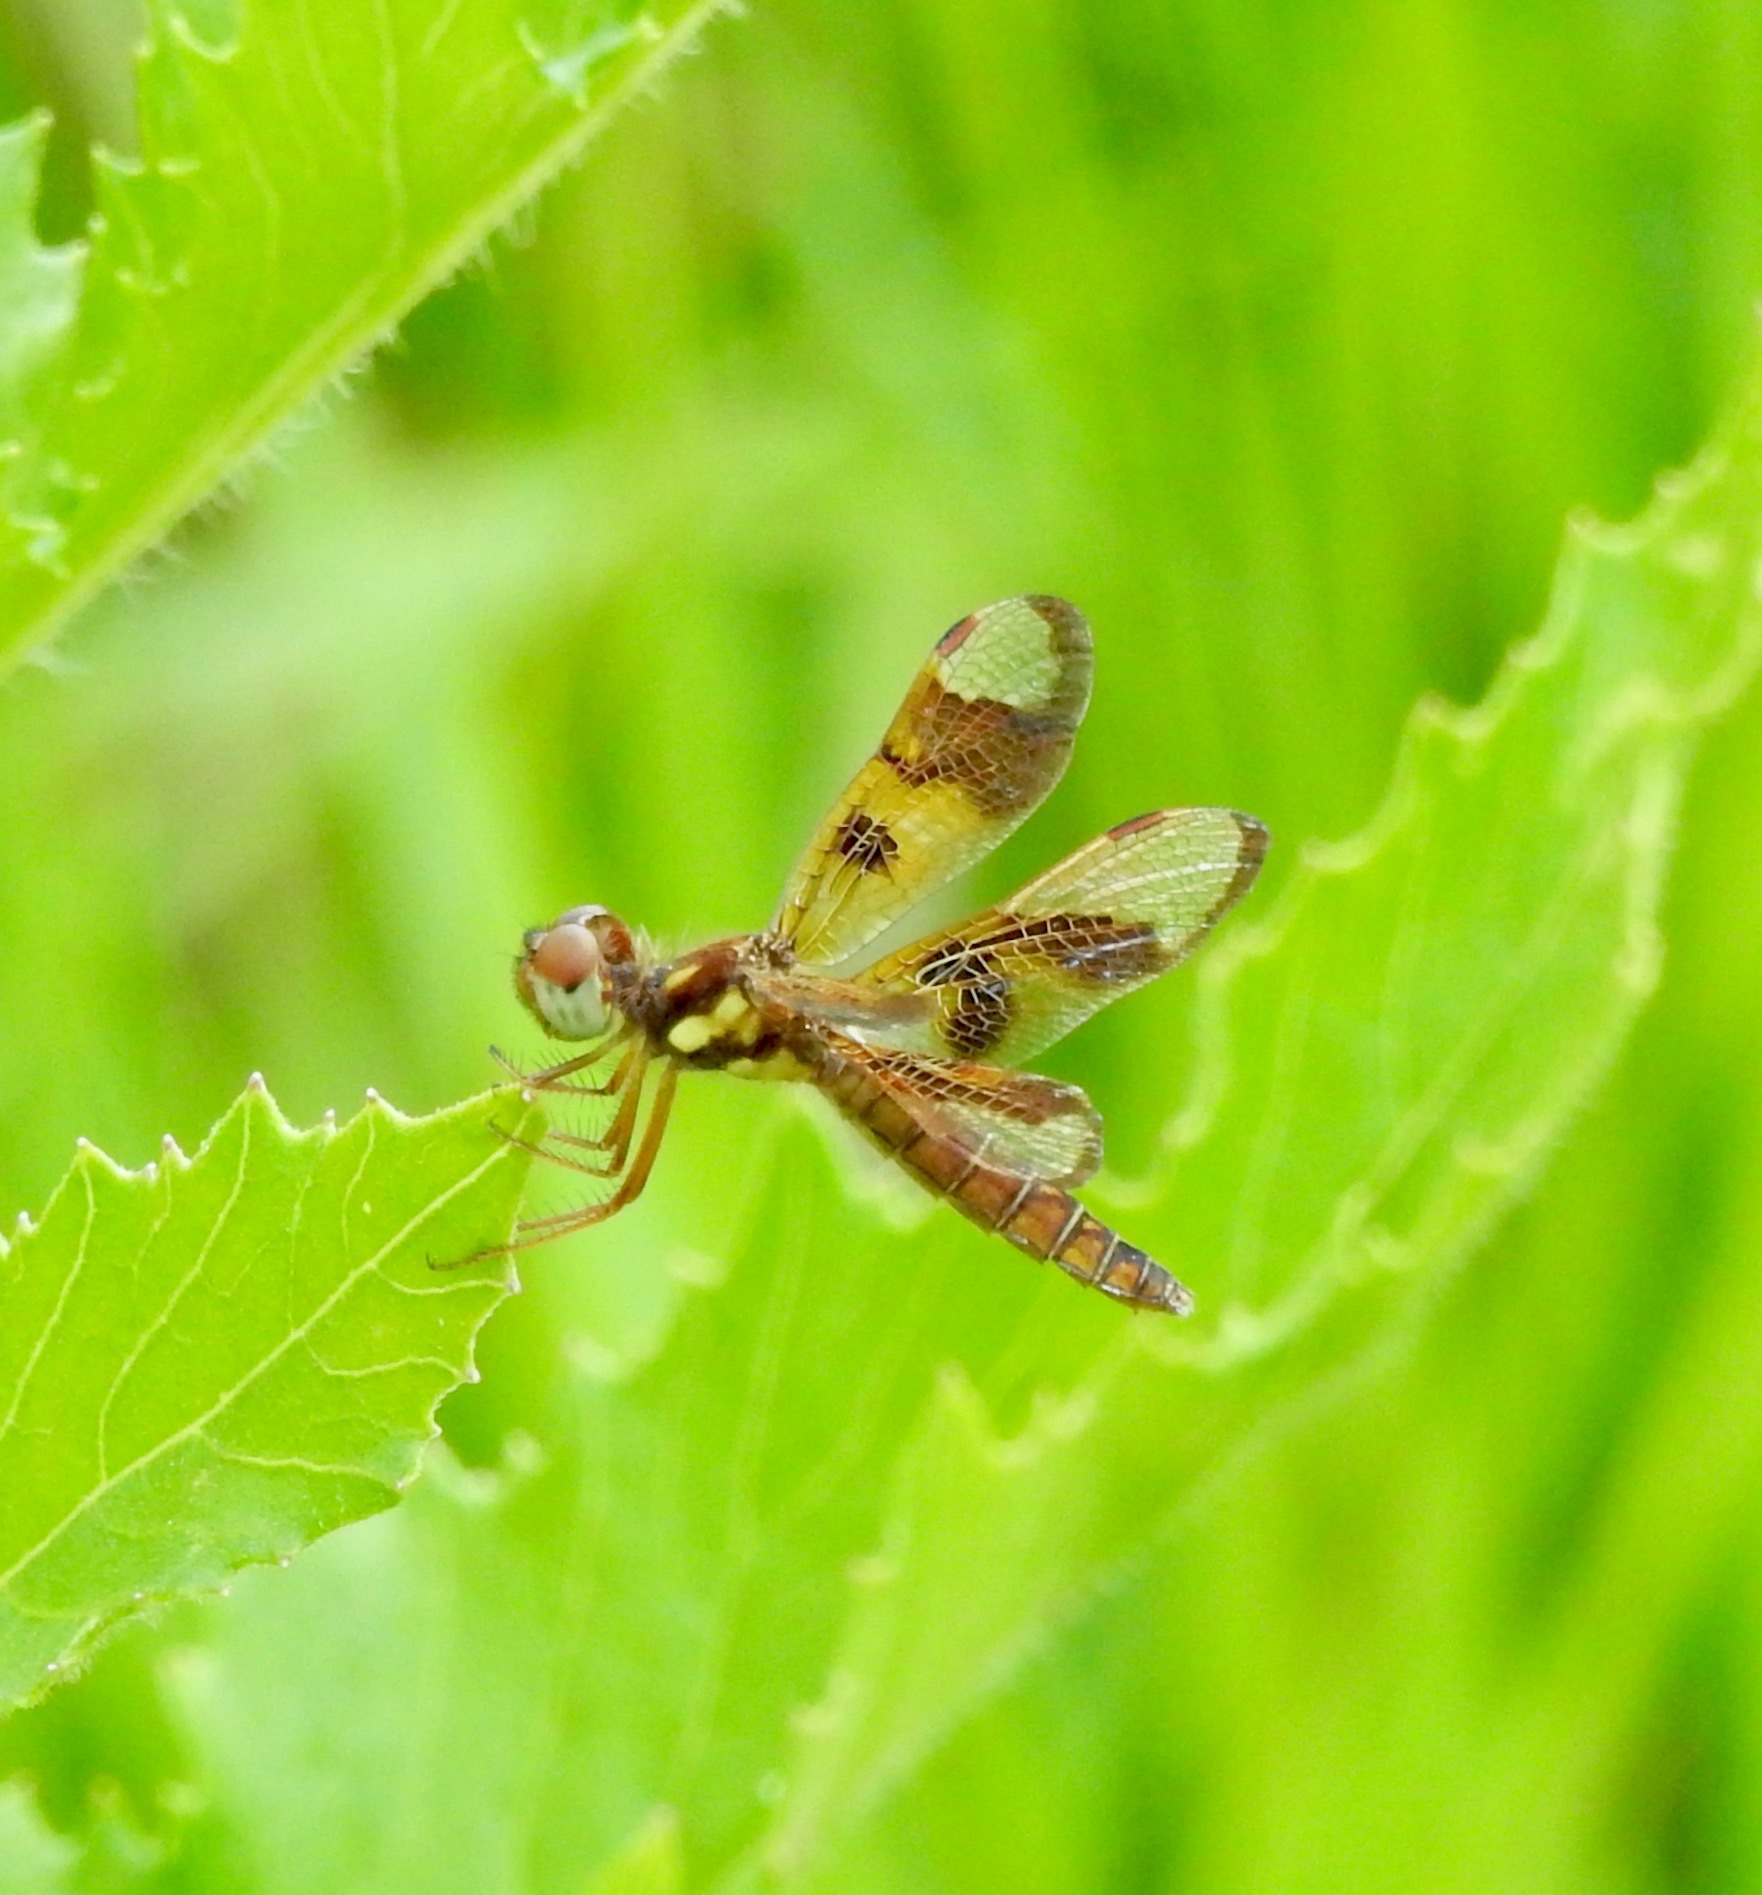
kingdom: Animalia
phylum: Arthropoda
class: Insecta
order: Odonata
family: Libellulidae
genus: Perithemis
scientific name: Perithemis tenera
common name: Eastern amberwing
